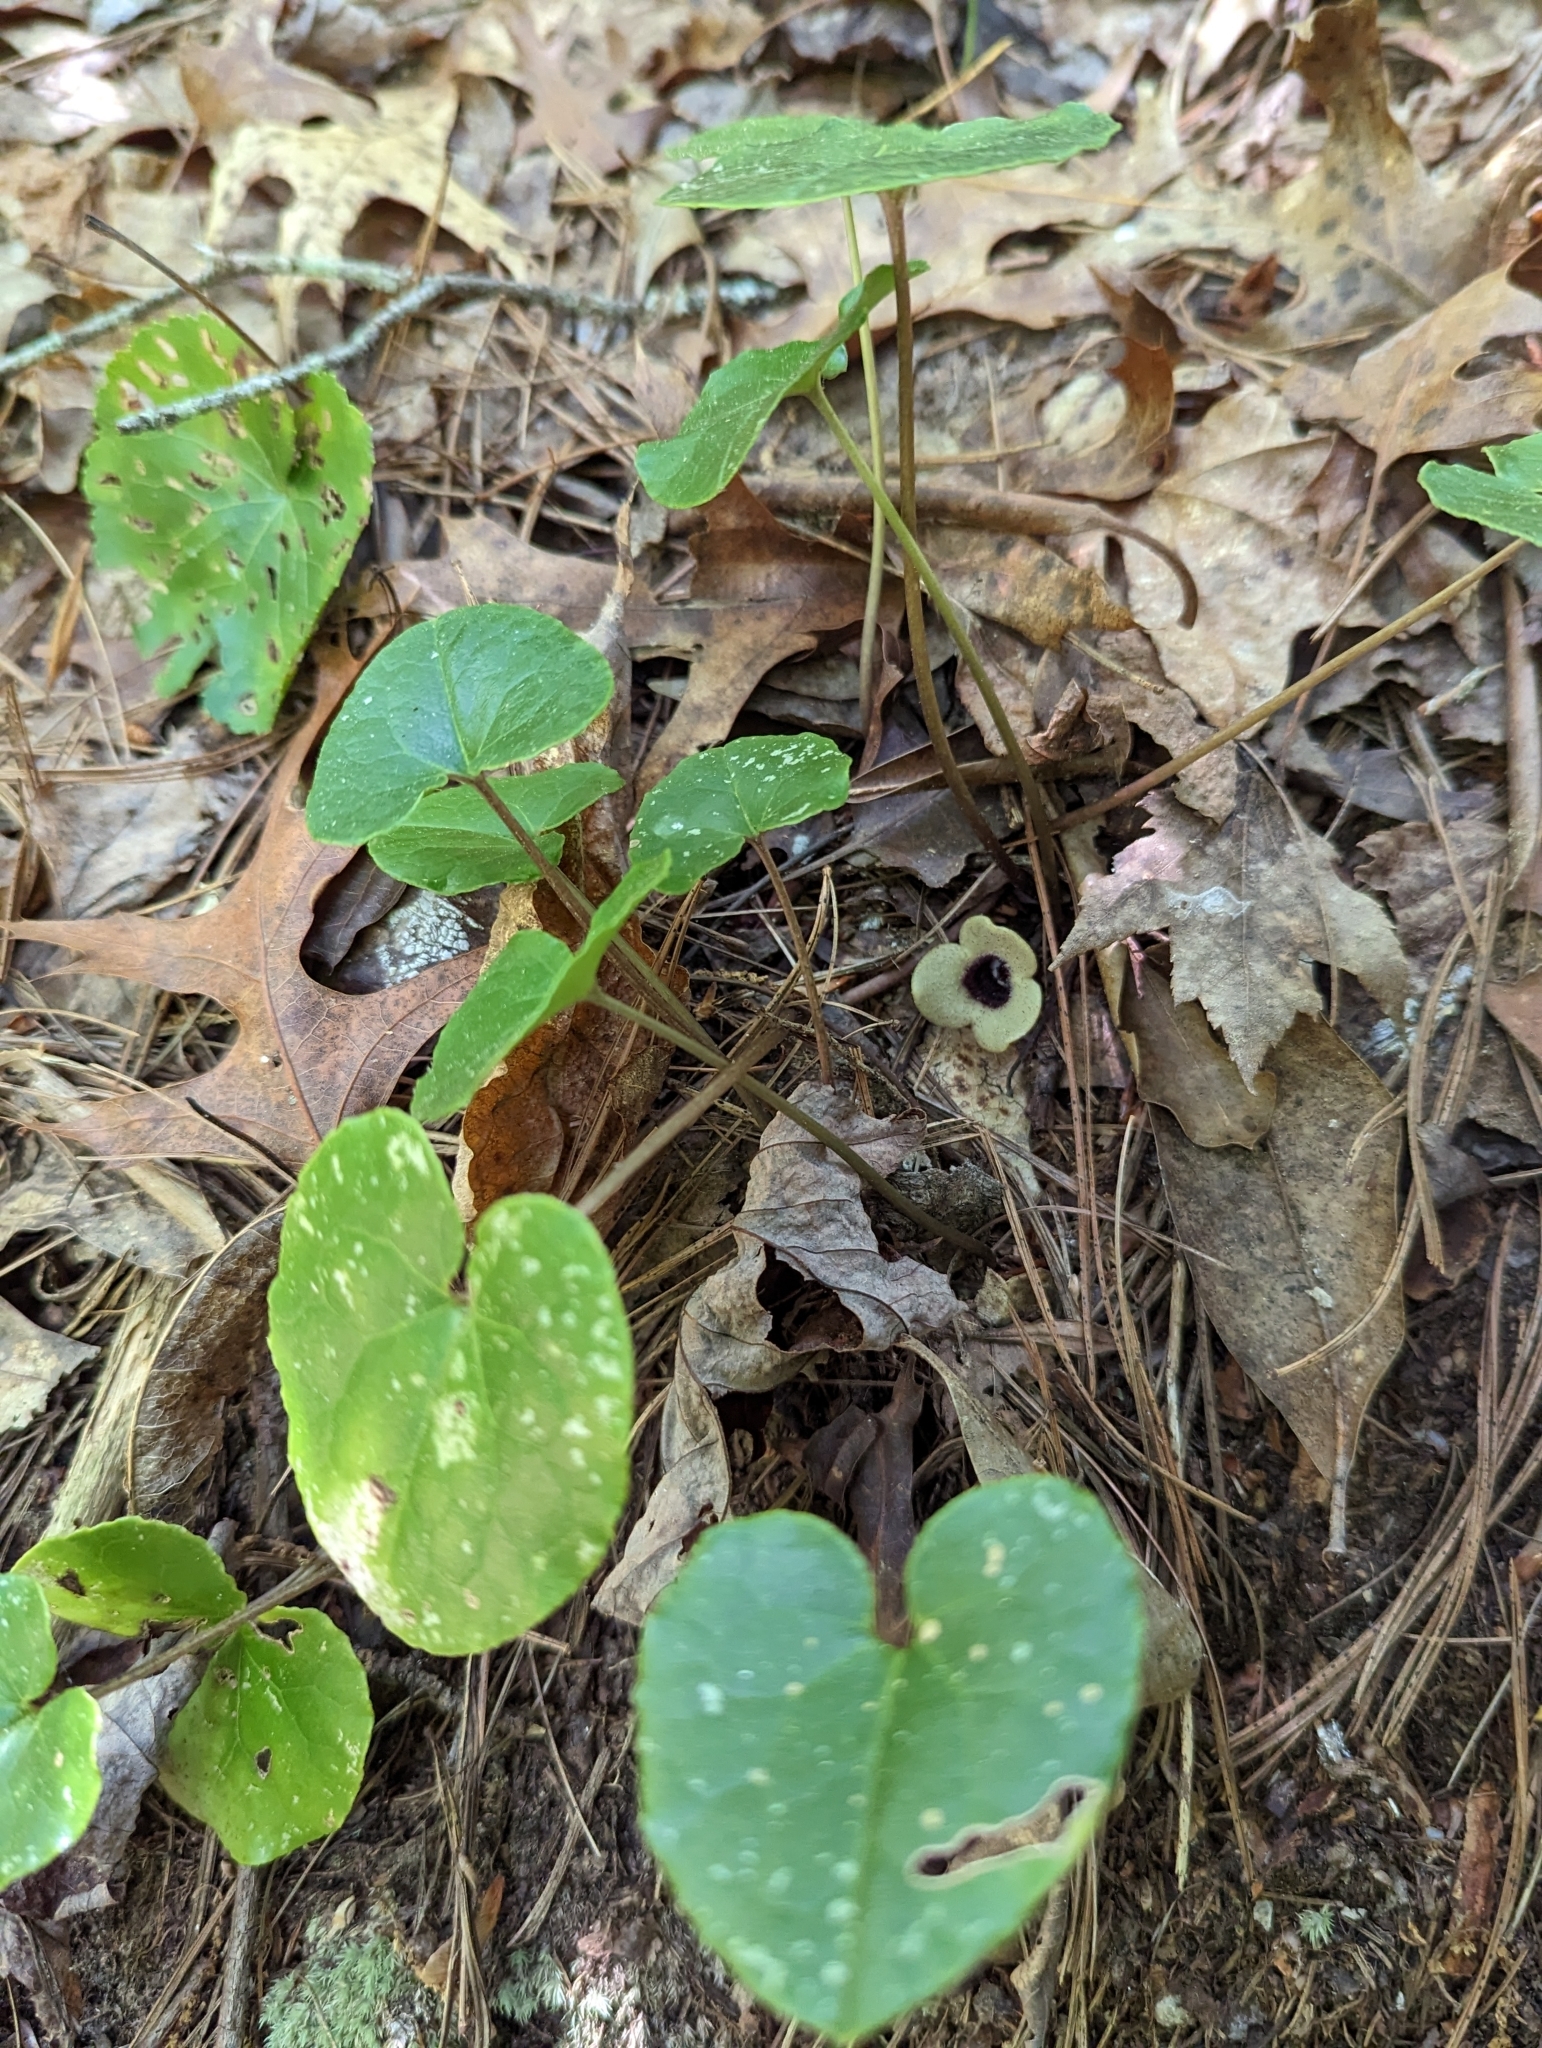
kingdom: Plantae
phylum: Tracheophyta
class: Magnoliopsida
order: Piperales
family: Aristolochiaceae
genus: Hexastylis
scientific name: Hexastylis rosei
